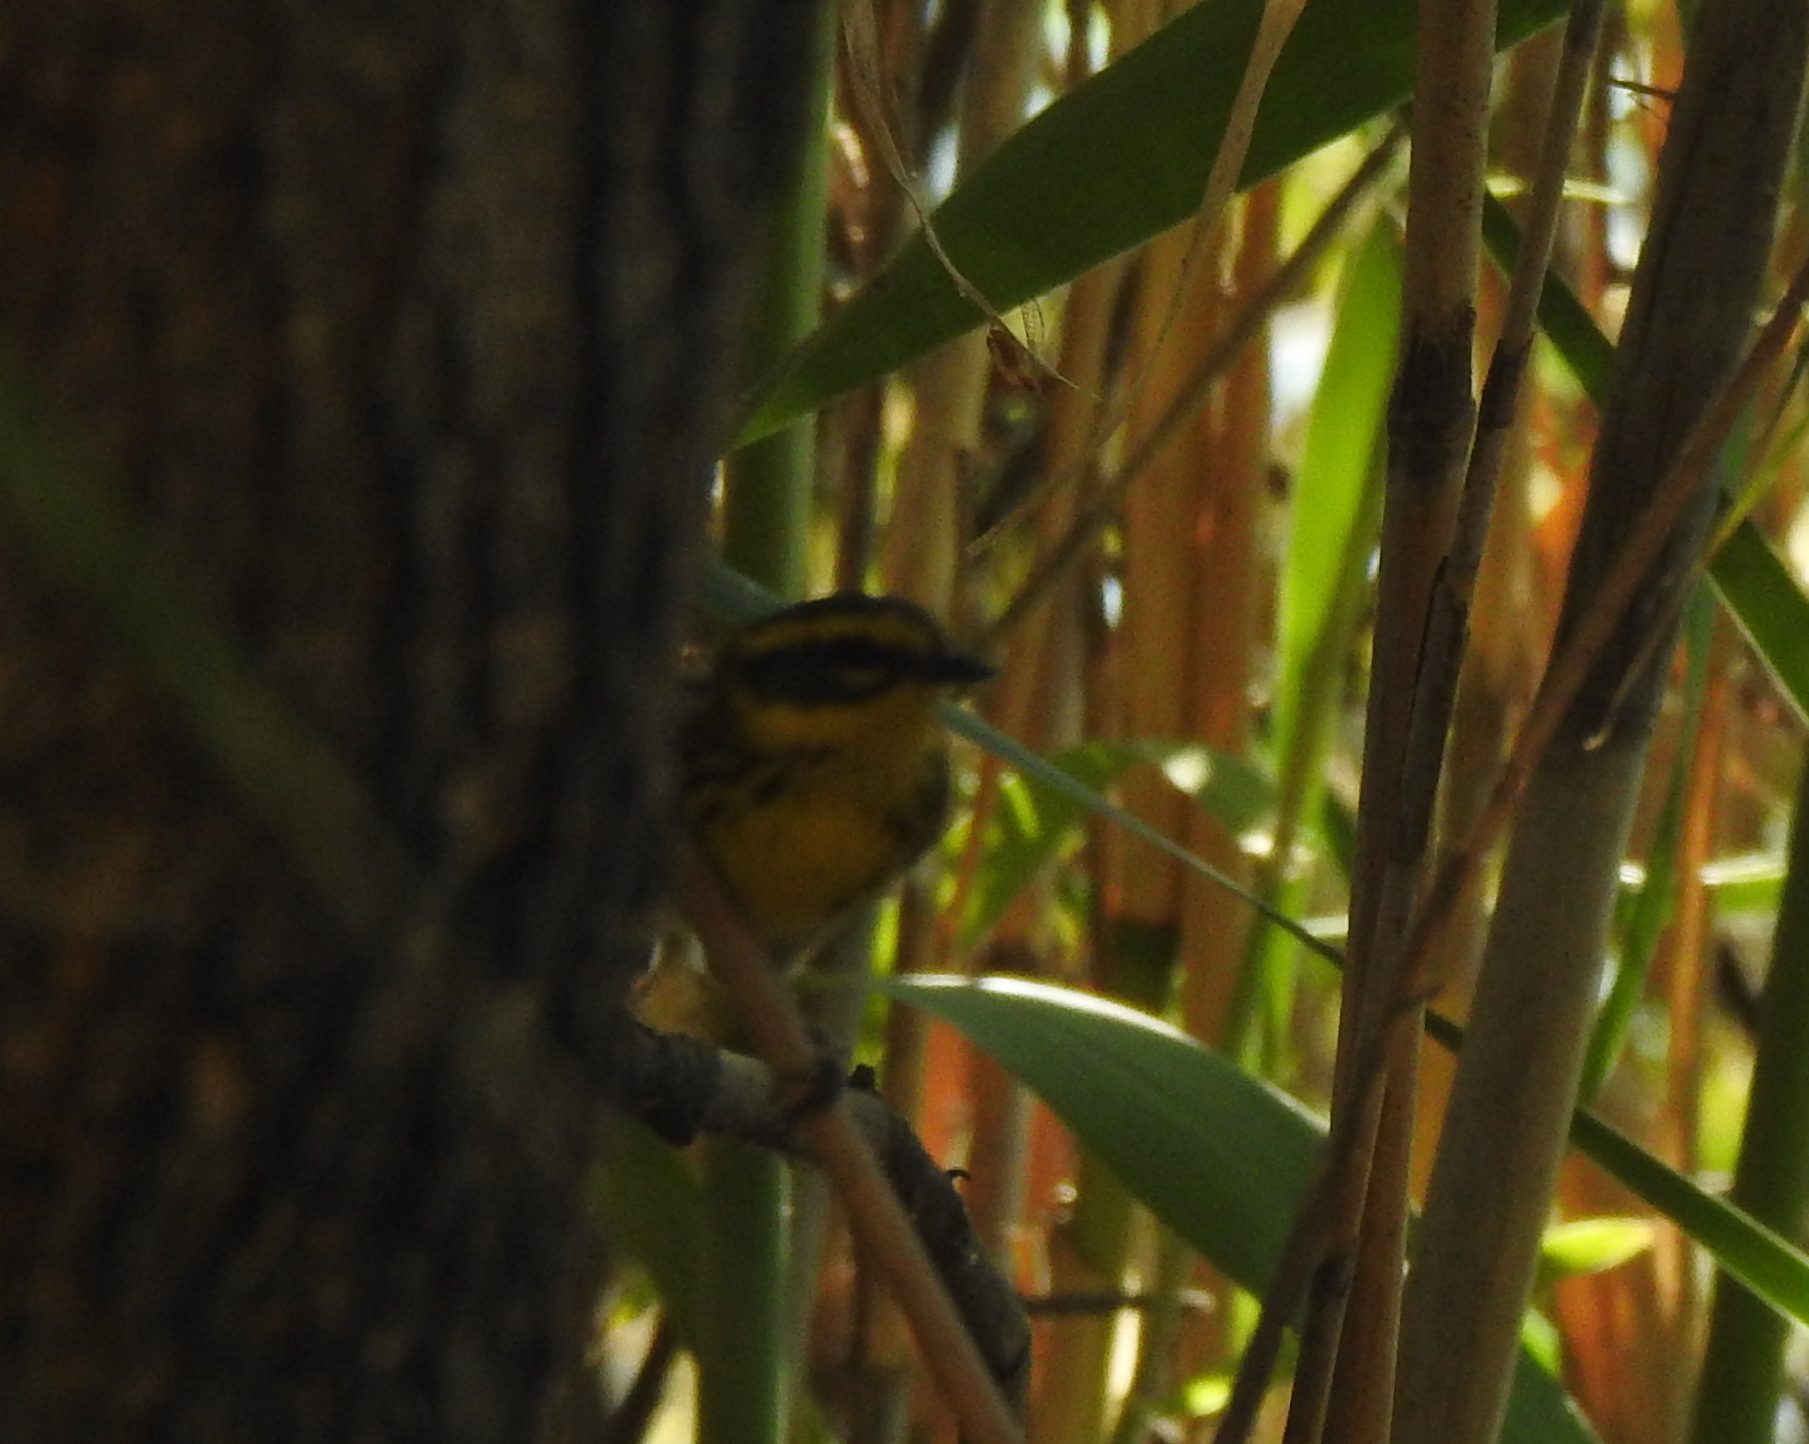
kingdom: Animalia
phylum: Chordata
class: Aves
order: Passeriformes
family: Parulidae
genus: Setophaga
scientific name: Setophaga townsendi
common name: Townsend's warbler
